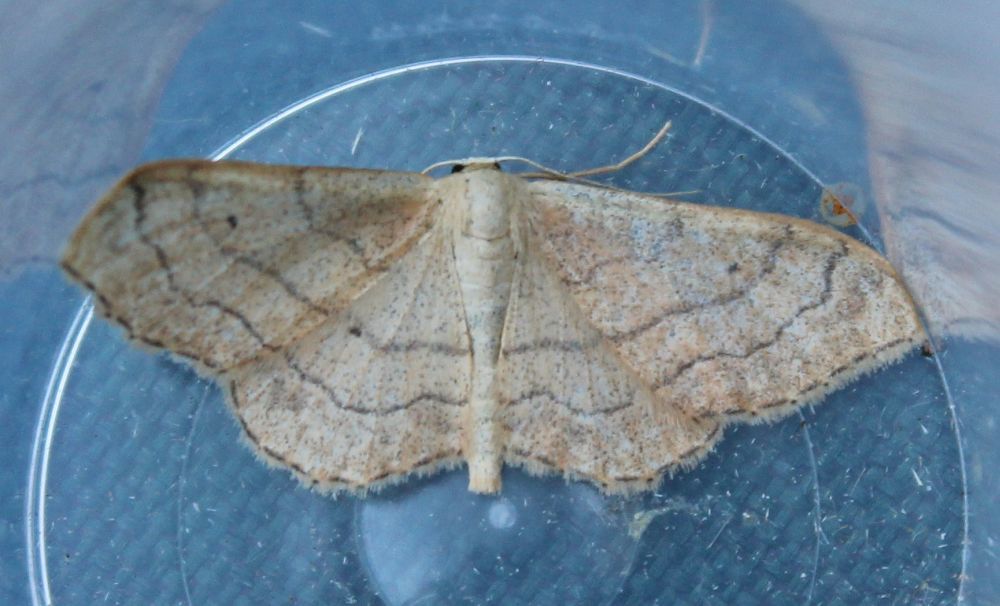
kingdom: Animalia
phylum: Arthropoda
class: Insecta
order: Lepidoptera
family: Geometridae
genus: Idaea
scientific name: Idaea aversata
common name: Riband wave
